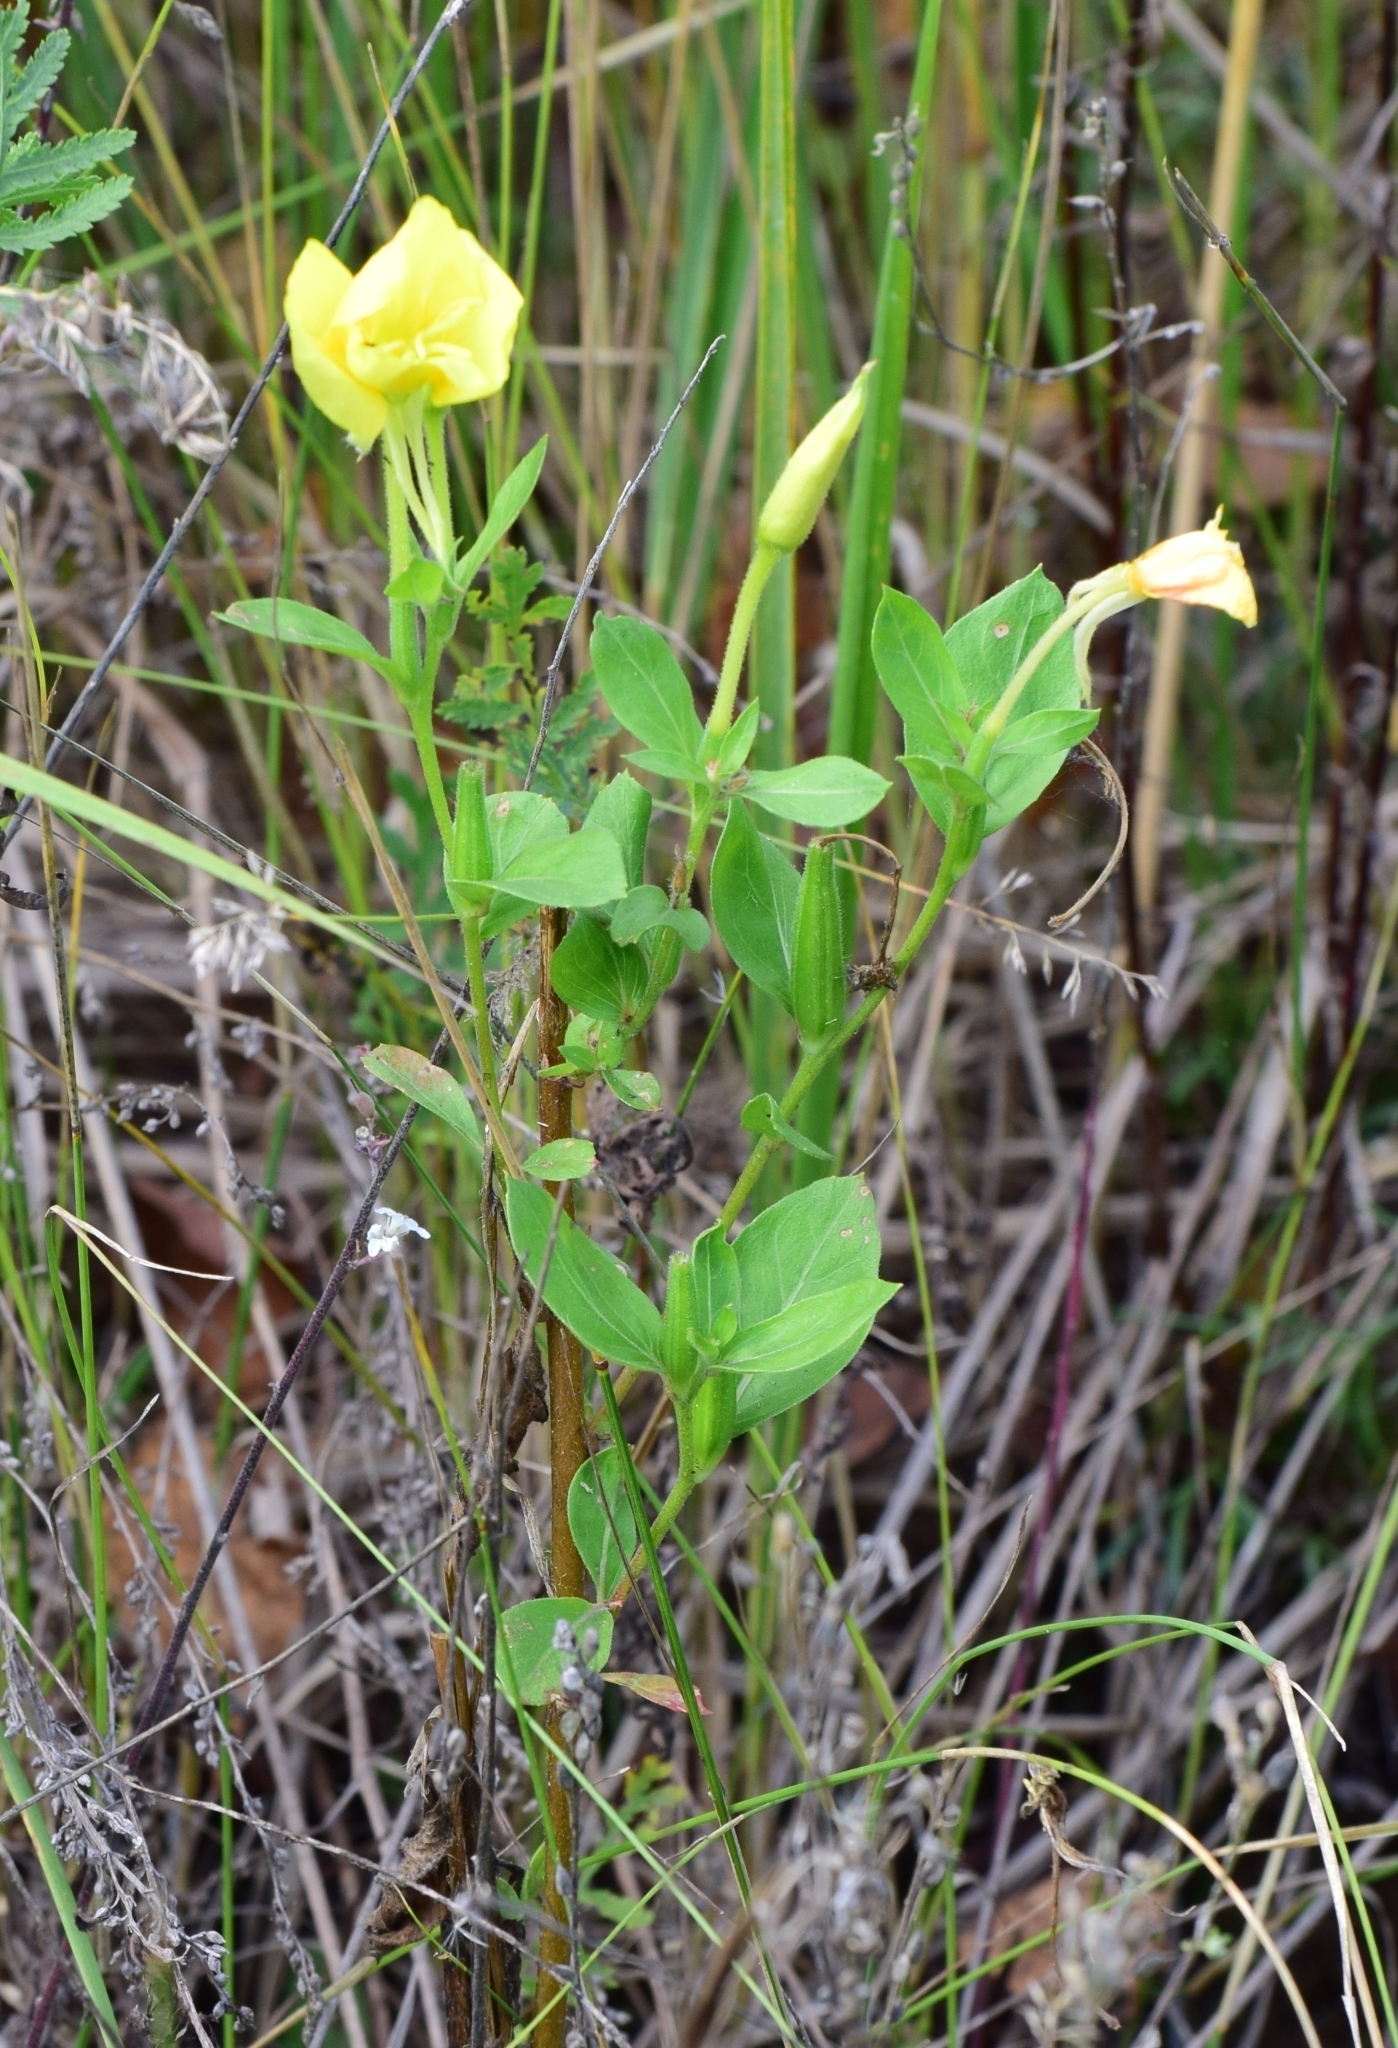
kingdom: Plantae
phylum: Tracheophyta
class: Magnoliopsida
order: Myrtales
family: Onagraceae
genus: Oenothera
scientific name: Oenothera biennis
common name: Common evening-primrose
